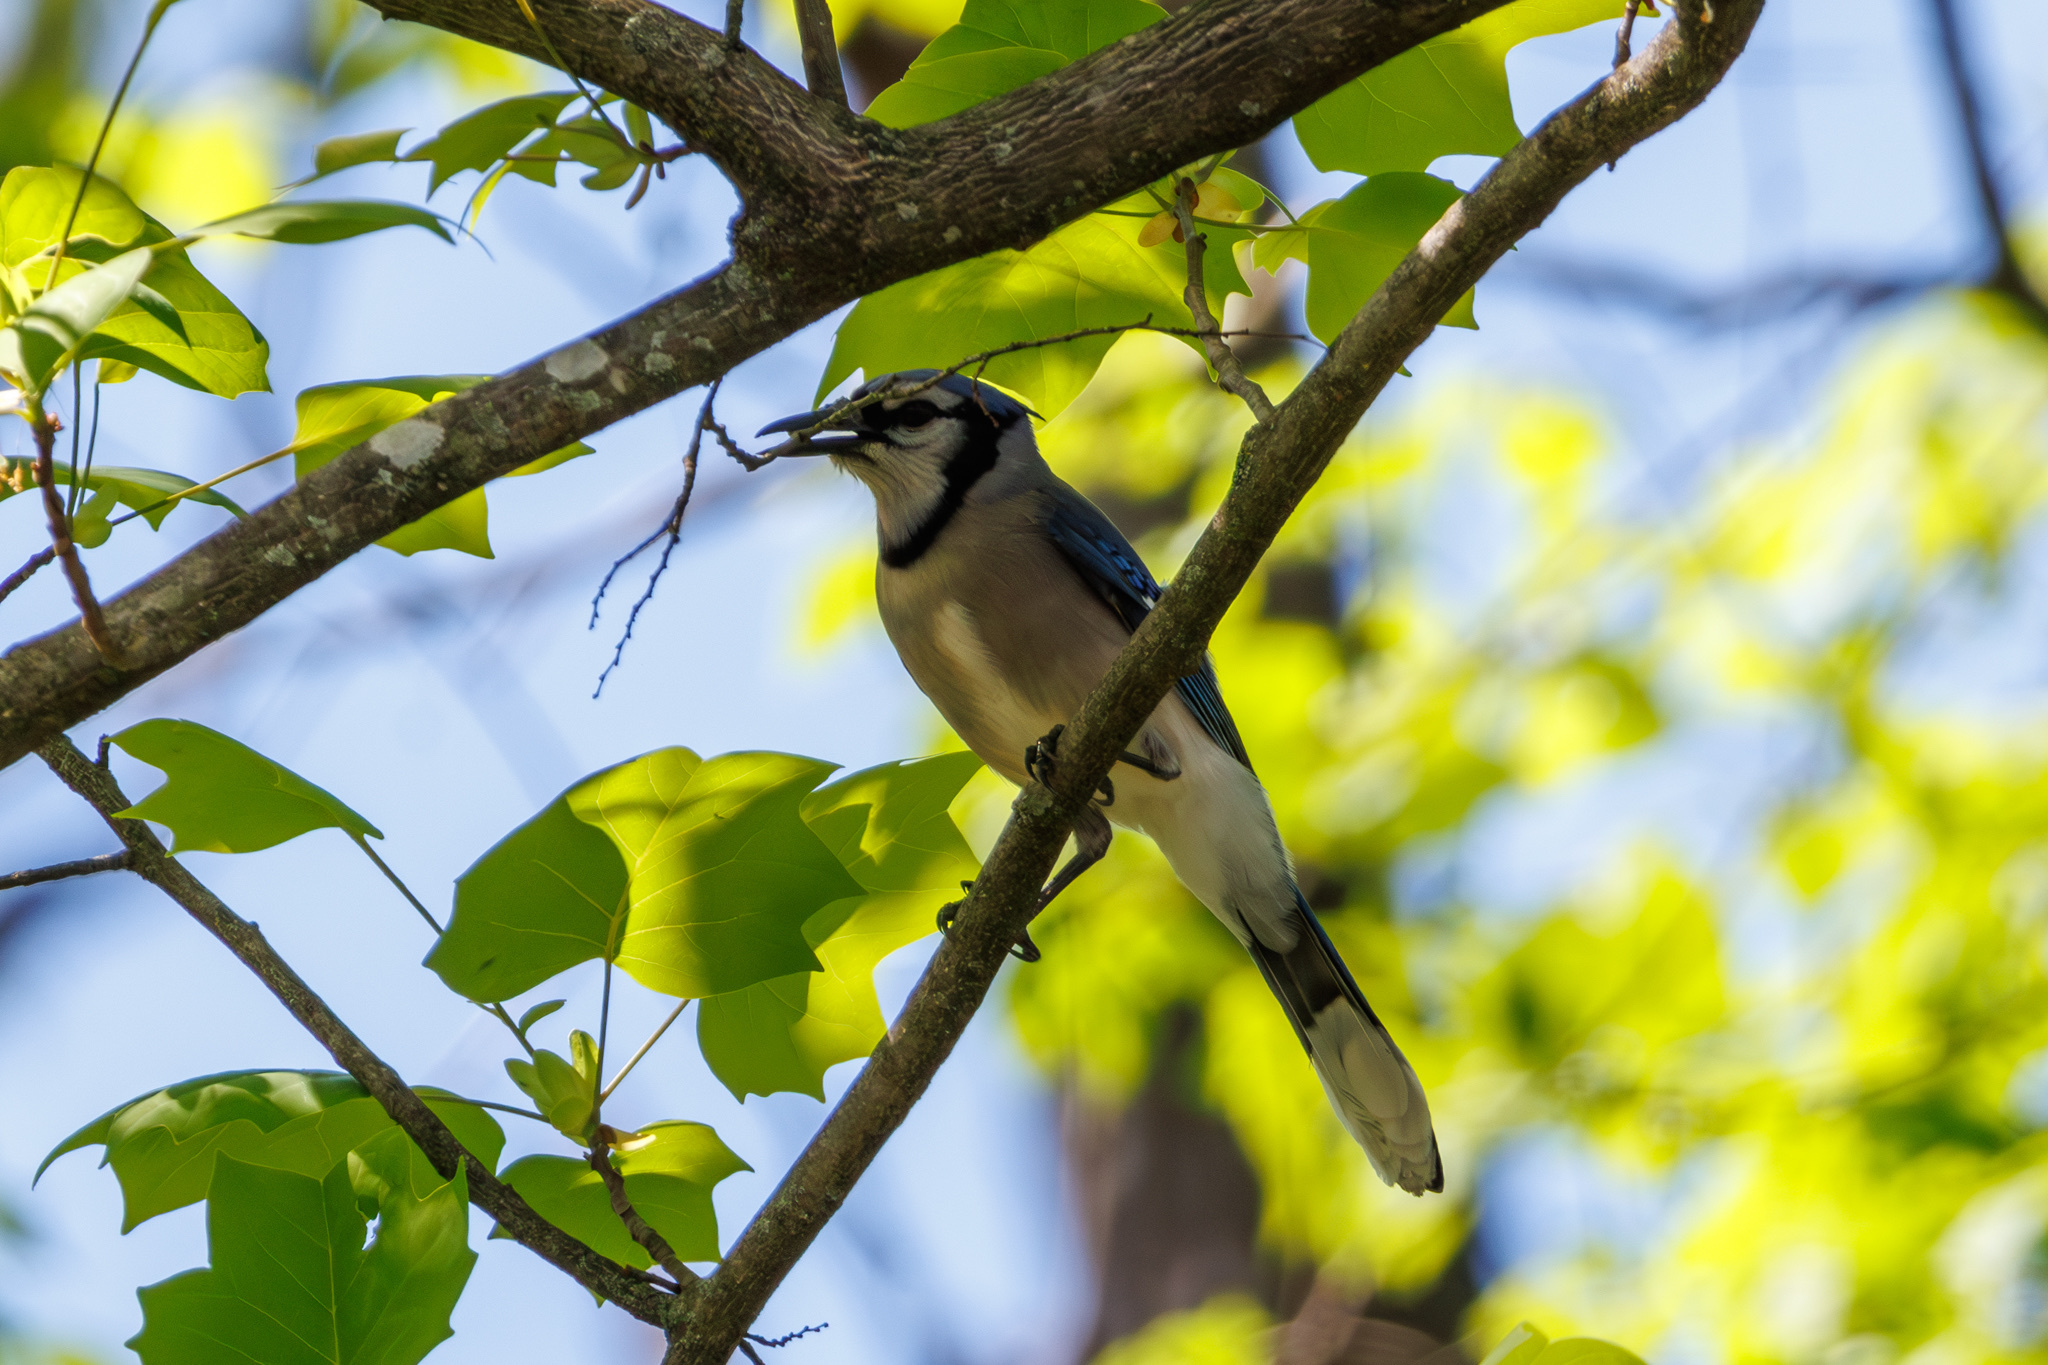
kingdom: Animalia
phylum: Chordata
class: Aves
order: Passeriformes
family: Corvidae
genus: Cyanocitta
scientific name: Cyanocitta cristata
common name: Blue jay
